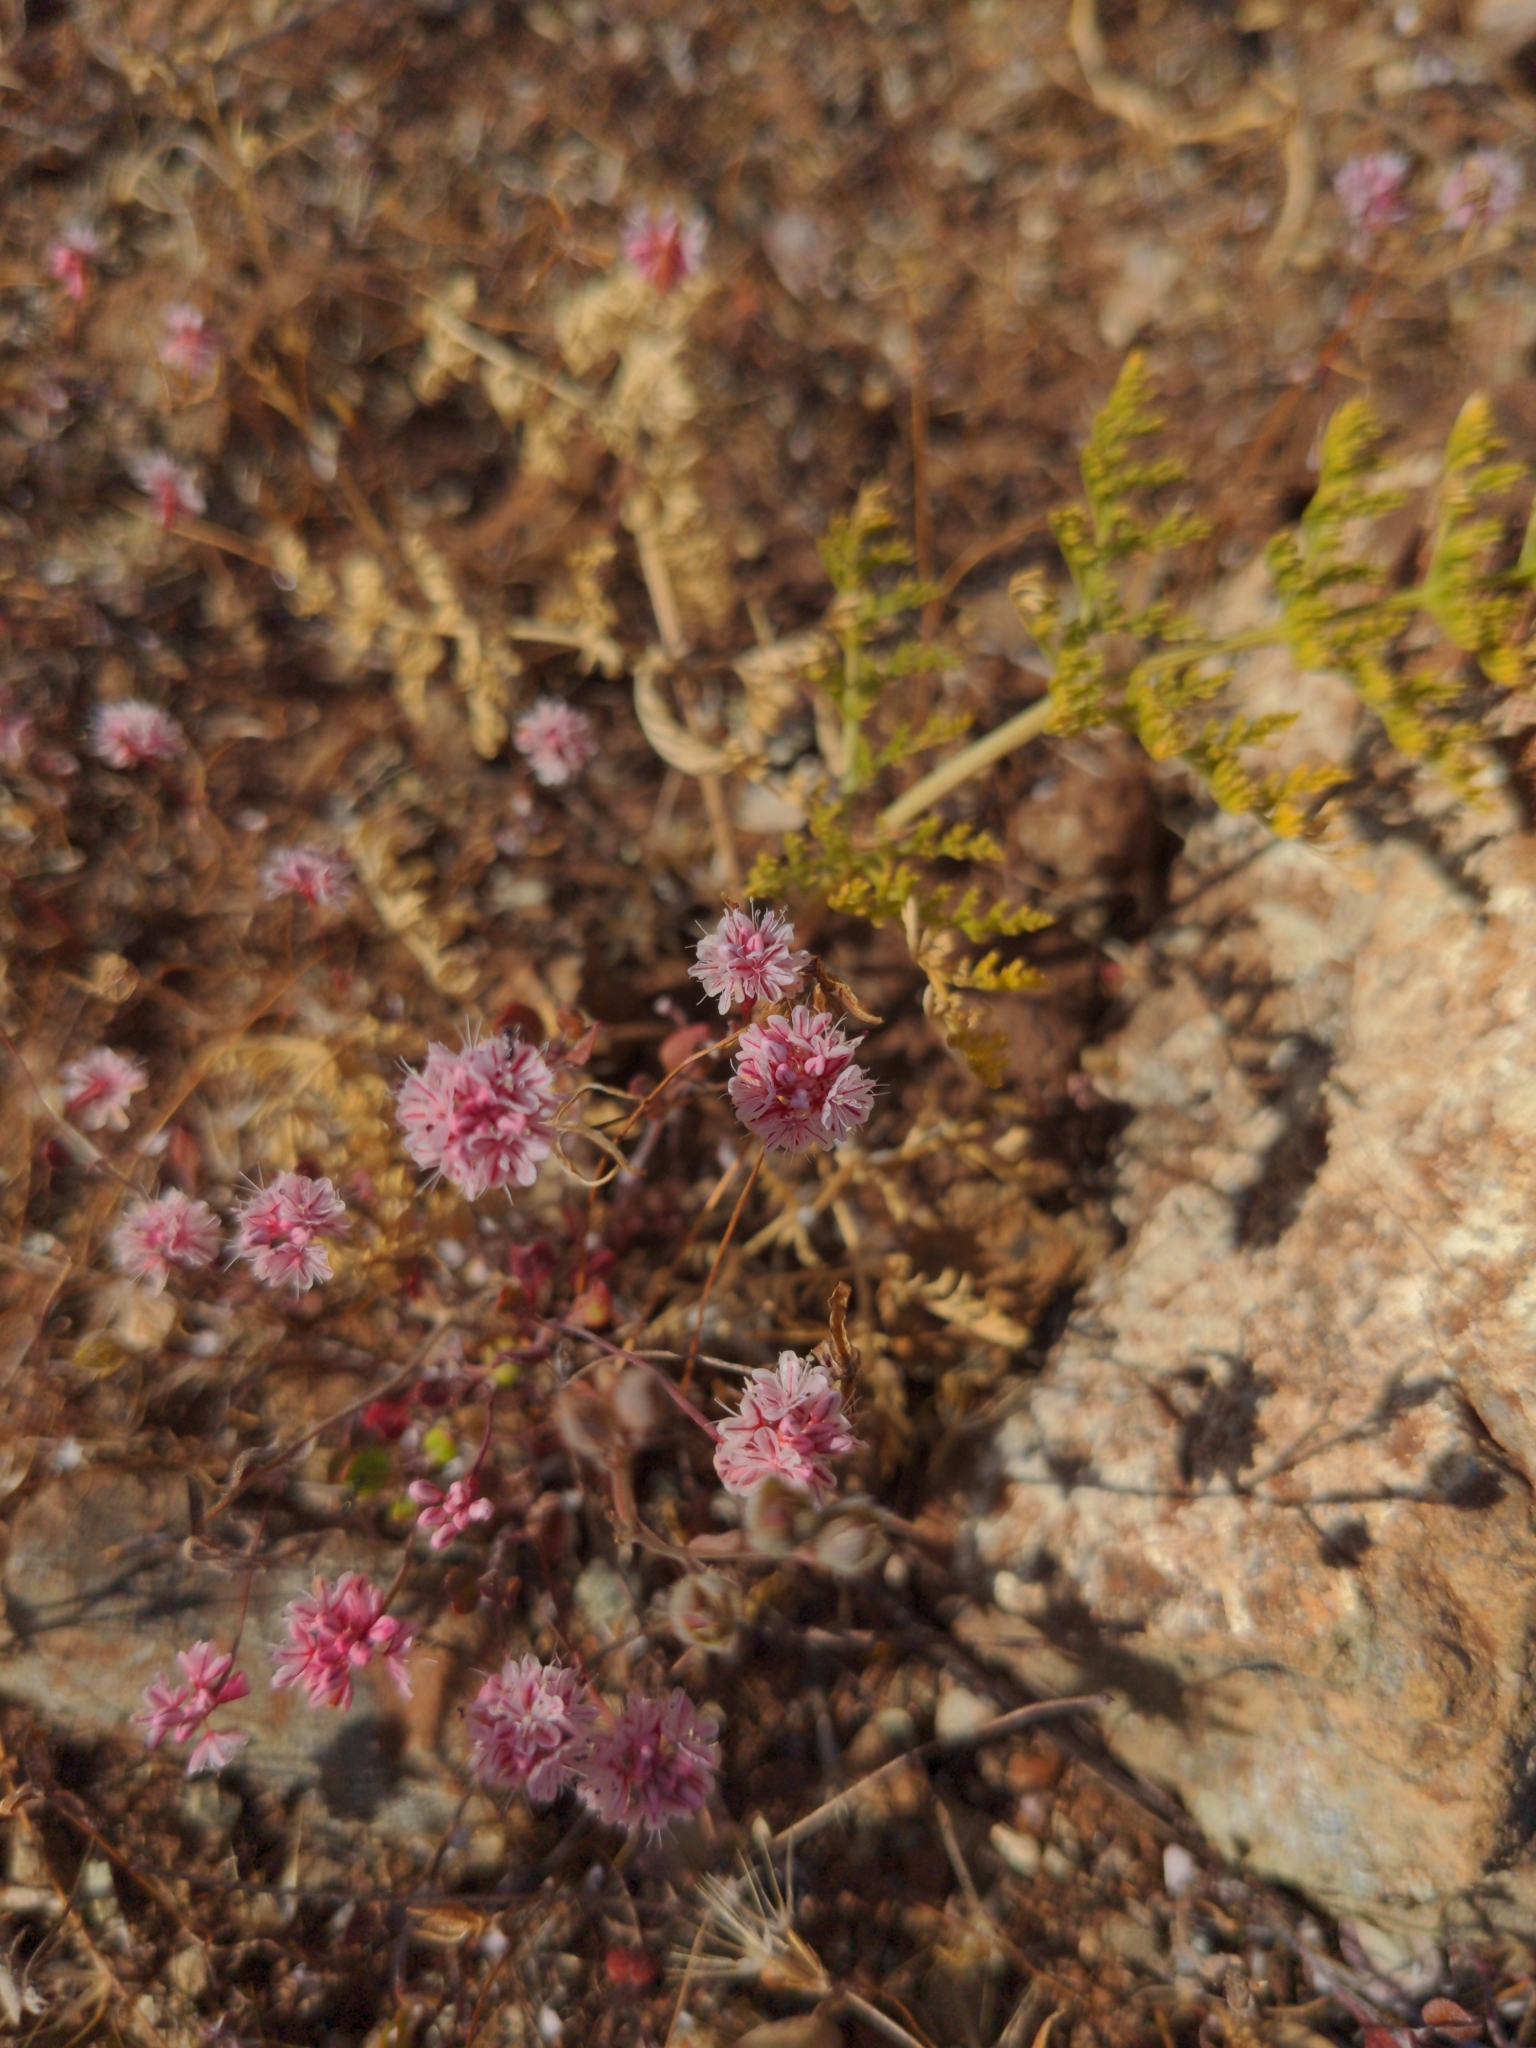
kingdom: Plantae
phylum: Tracheophyta
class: Magnoliopsida
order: Caryophyllales
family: Polygonaceae
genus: Eriogonum
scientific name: Eriogonum luteolum
